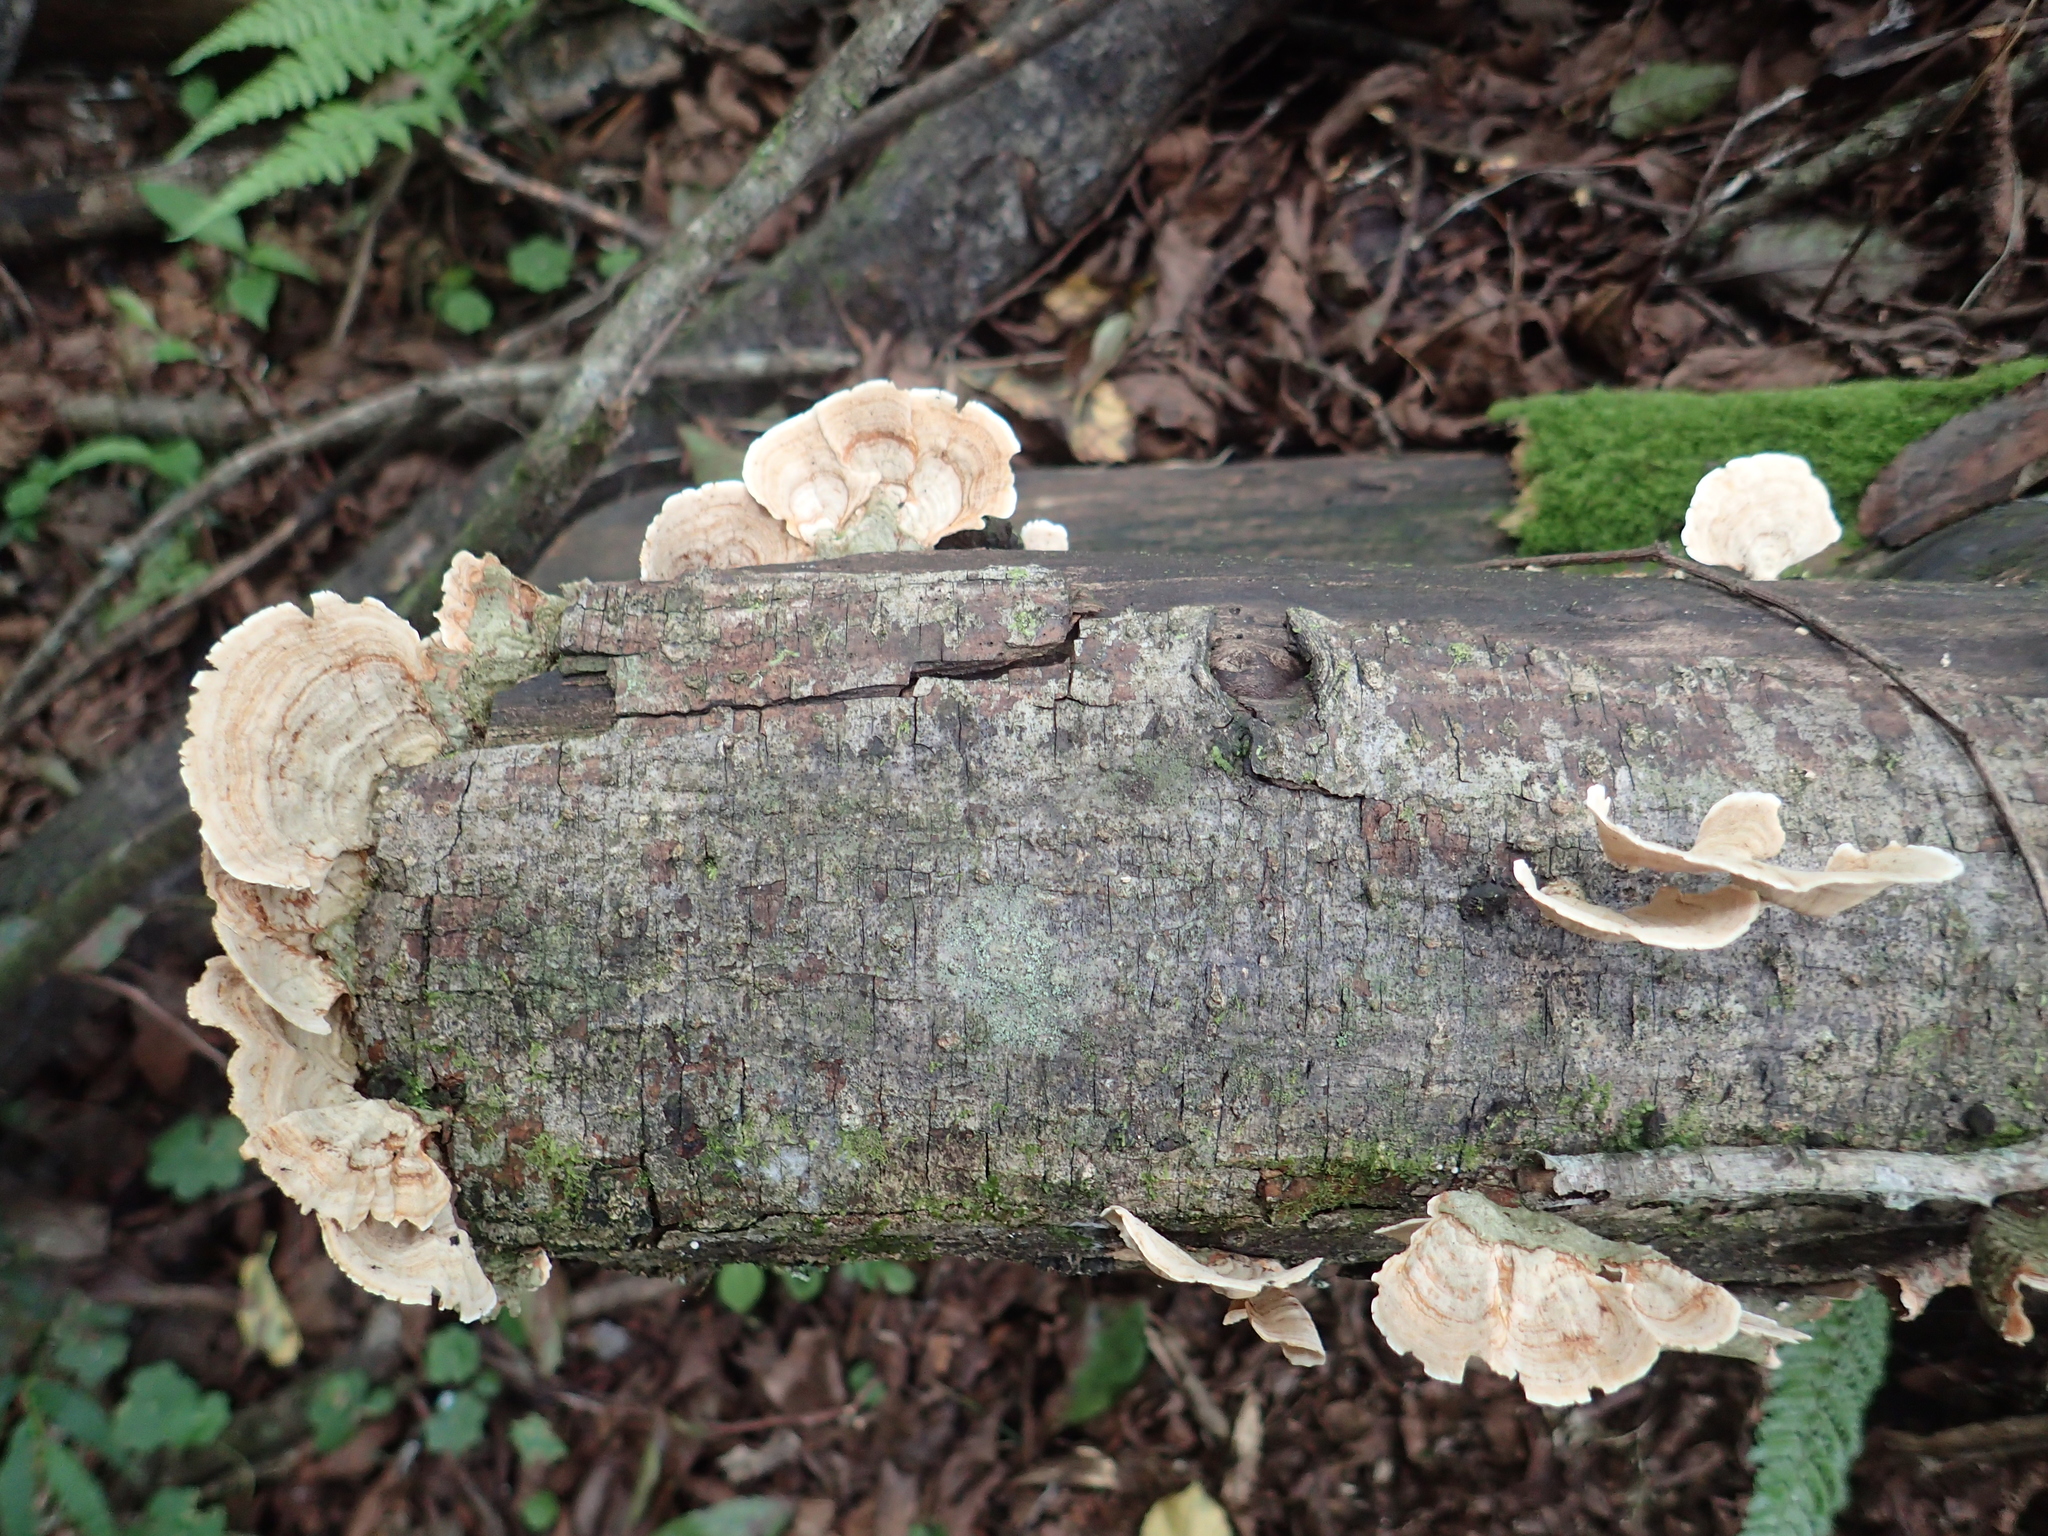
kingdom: Fungi
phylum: Basidiomycota
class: Agaricomycetes
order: Russulales
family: Stereaceae
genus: Stereum
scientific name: Stereum ostrea
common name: False turkeytail
